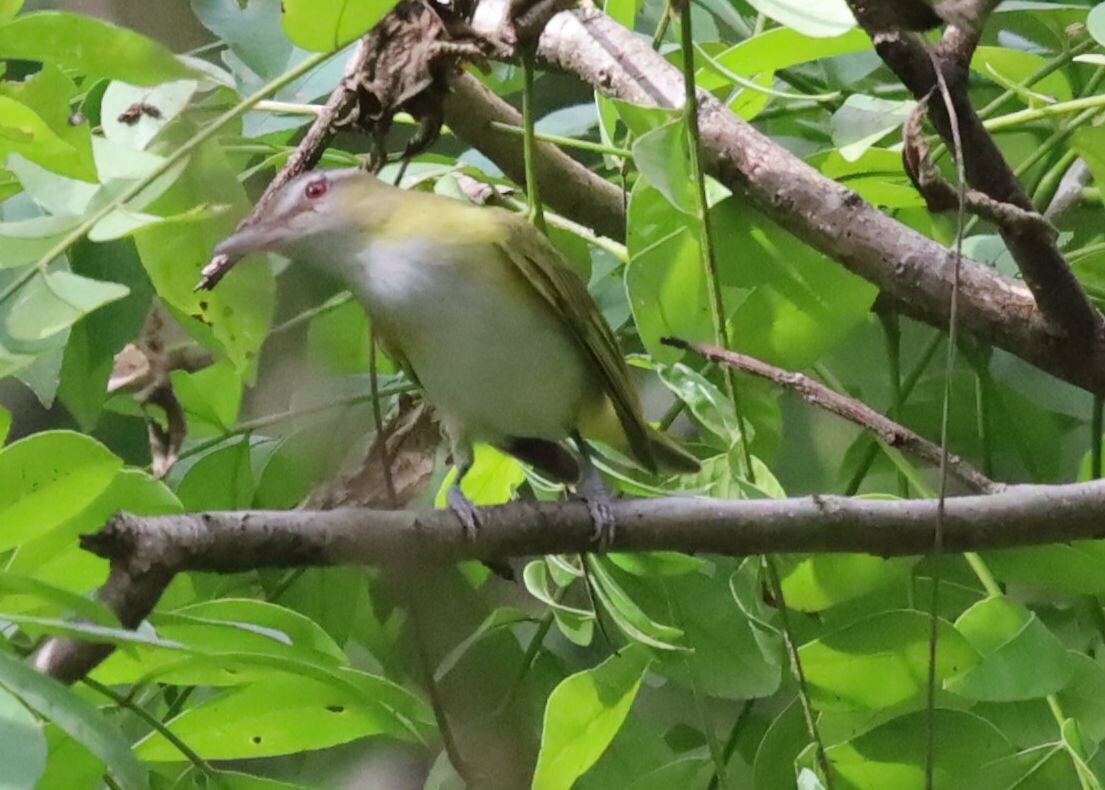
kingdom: Animalia
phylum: Chordata
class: Aves
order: Passeriformes
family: Vireonidae
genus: Vireo
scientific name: Vireo flavoviridis
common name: Yellow-green vireo
